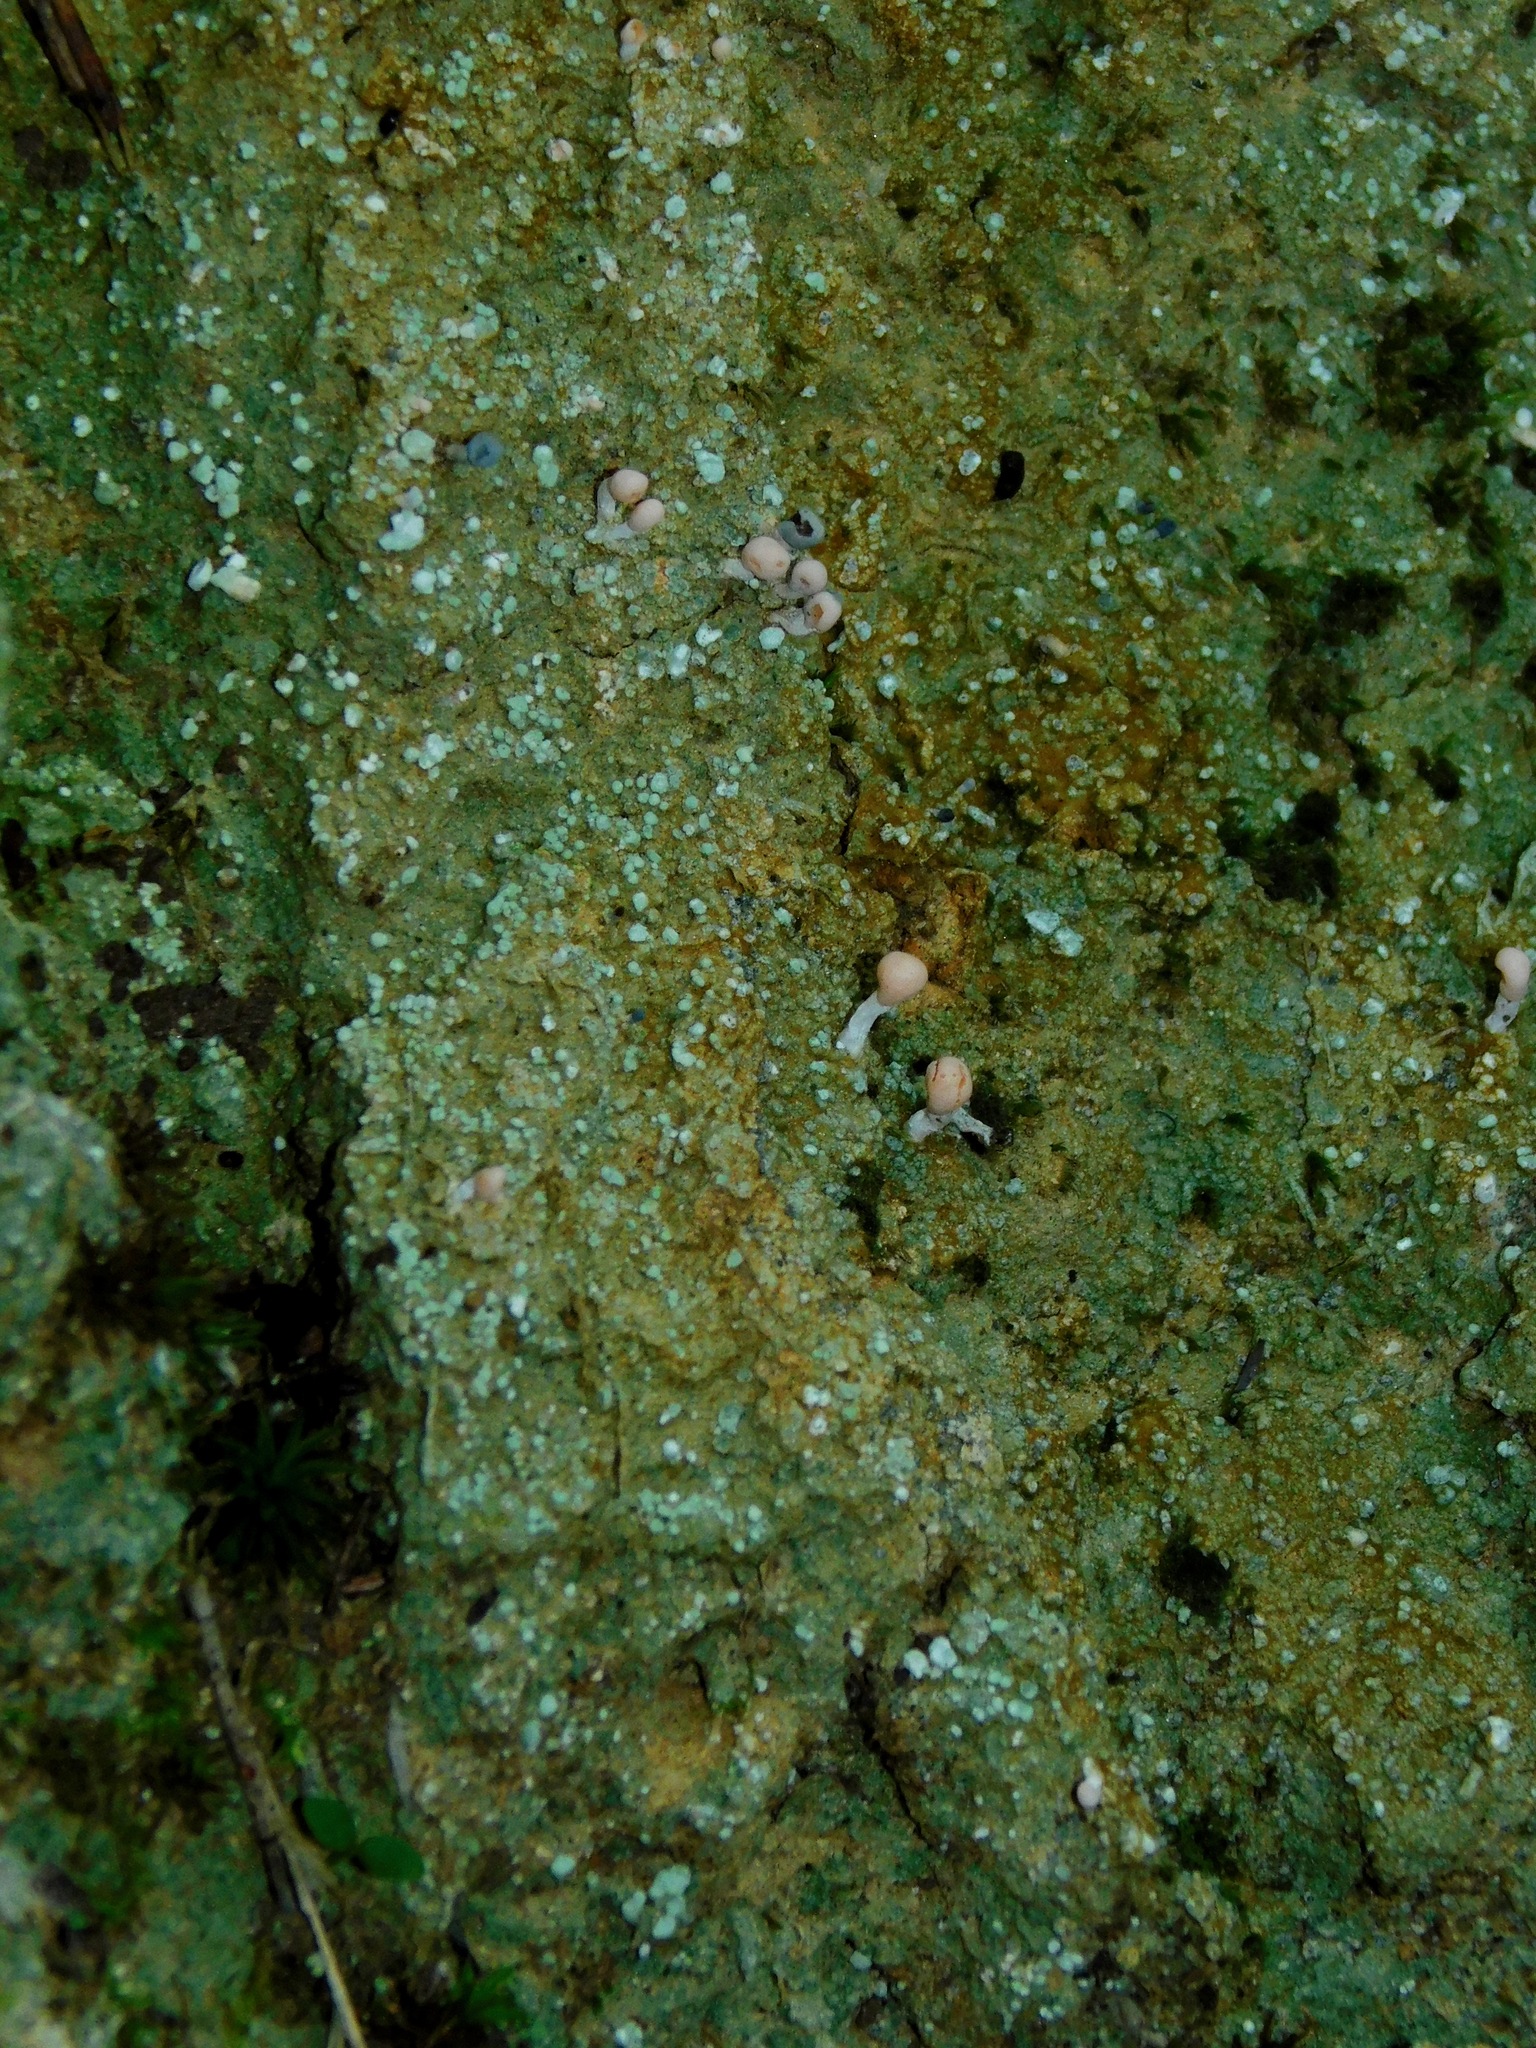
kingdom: Fungi
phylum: Ascomycota
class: Lecanoromycetes
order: Pertusariales
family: Icmadophilaceae
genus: Dibaeis
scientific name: Dibaeis baeomyces
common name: Pink earth lichen
